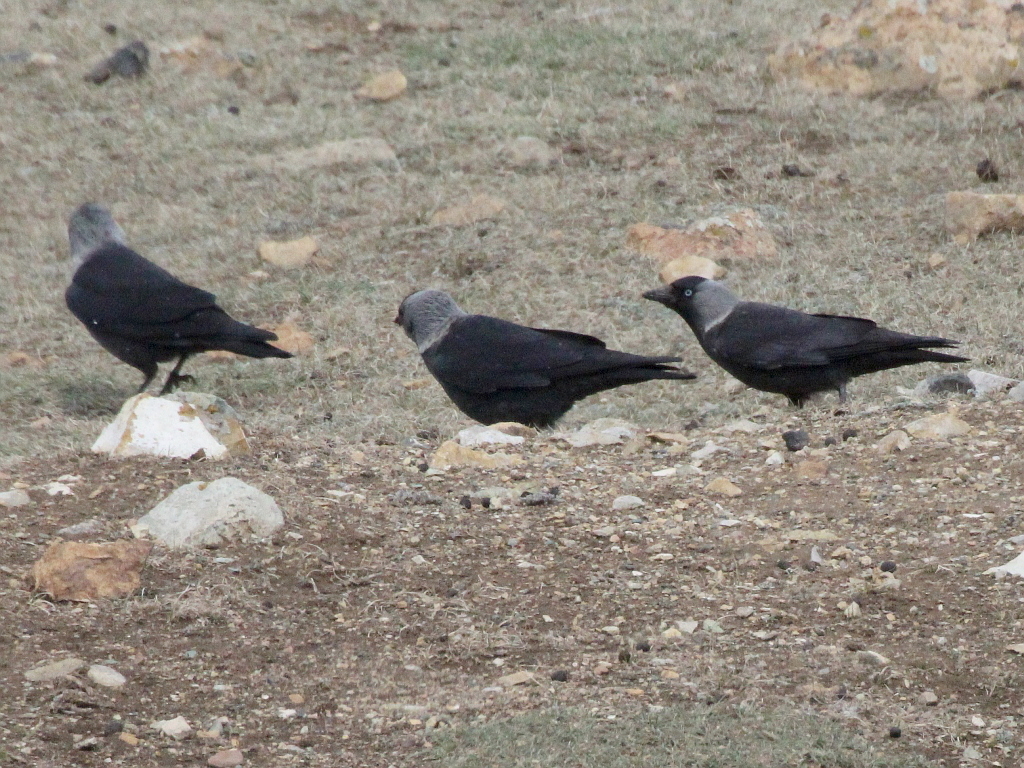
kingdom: Animalia
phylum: Chordata
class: Aves
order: Passeriformes
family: Corvidae
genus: Coloeus
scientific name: Coloeus monedula
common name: Western jackdaw
